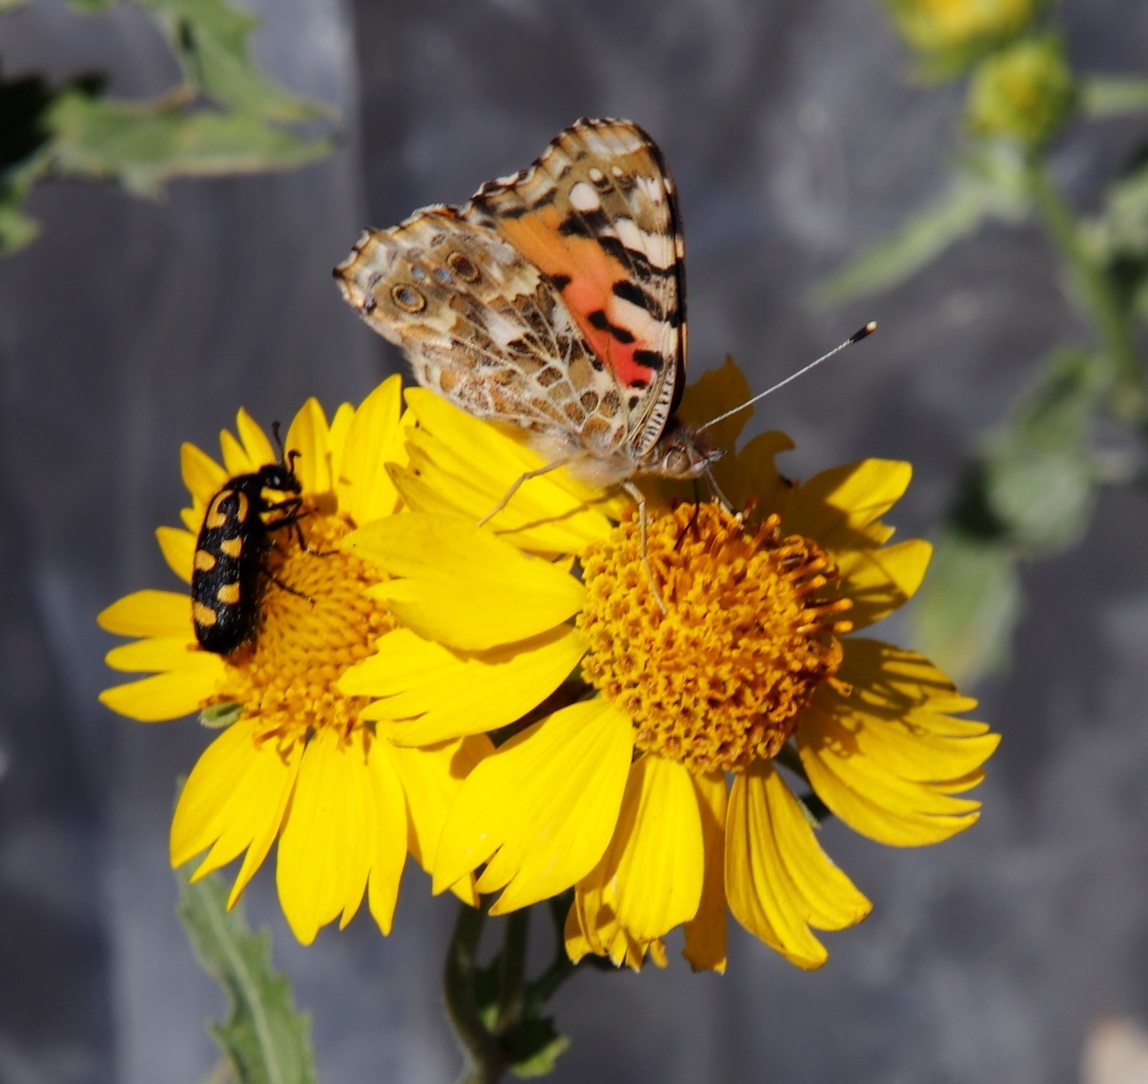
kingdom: Animalia
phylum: Arthropoda
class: Insecta
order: Lepidoptera
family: Nymphalidae
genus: Vanessa
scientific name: Vanessa cardui
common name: Painted lady
